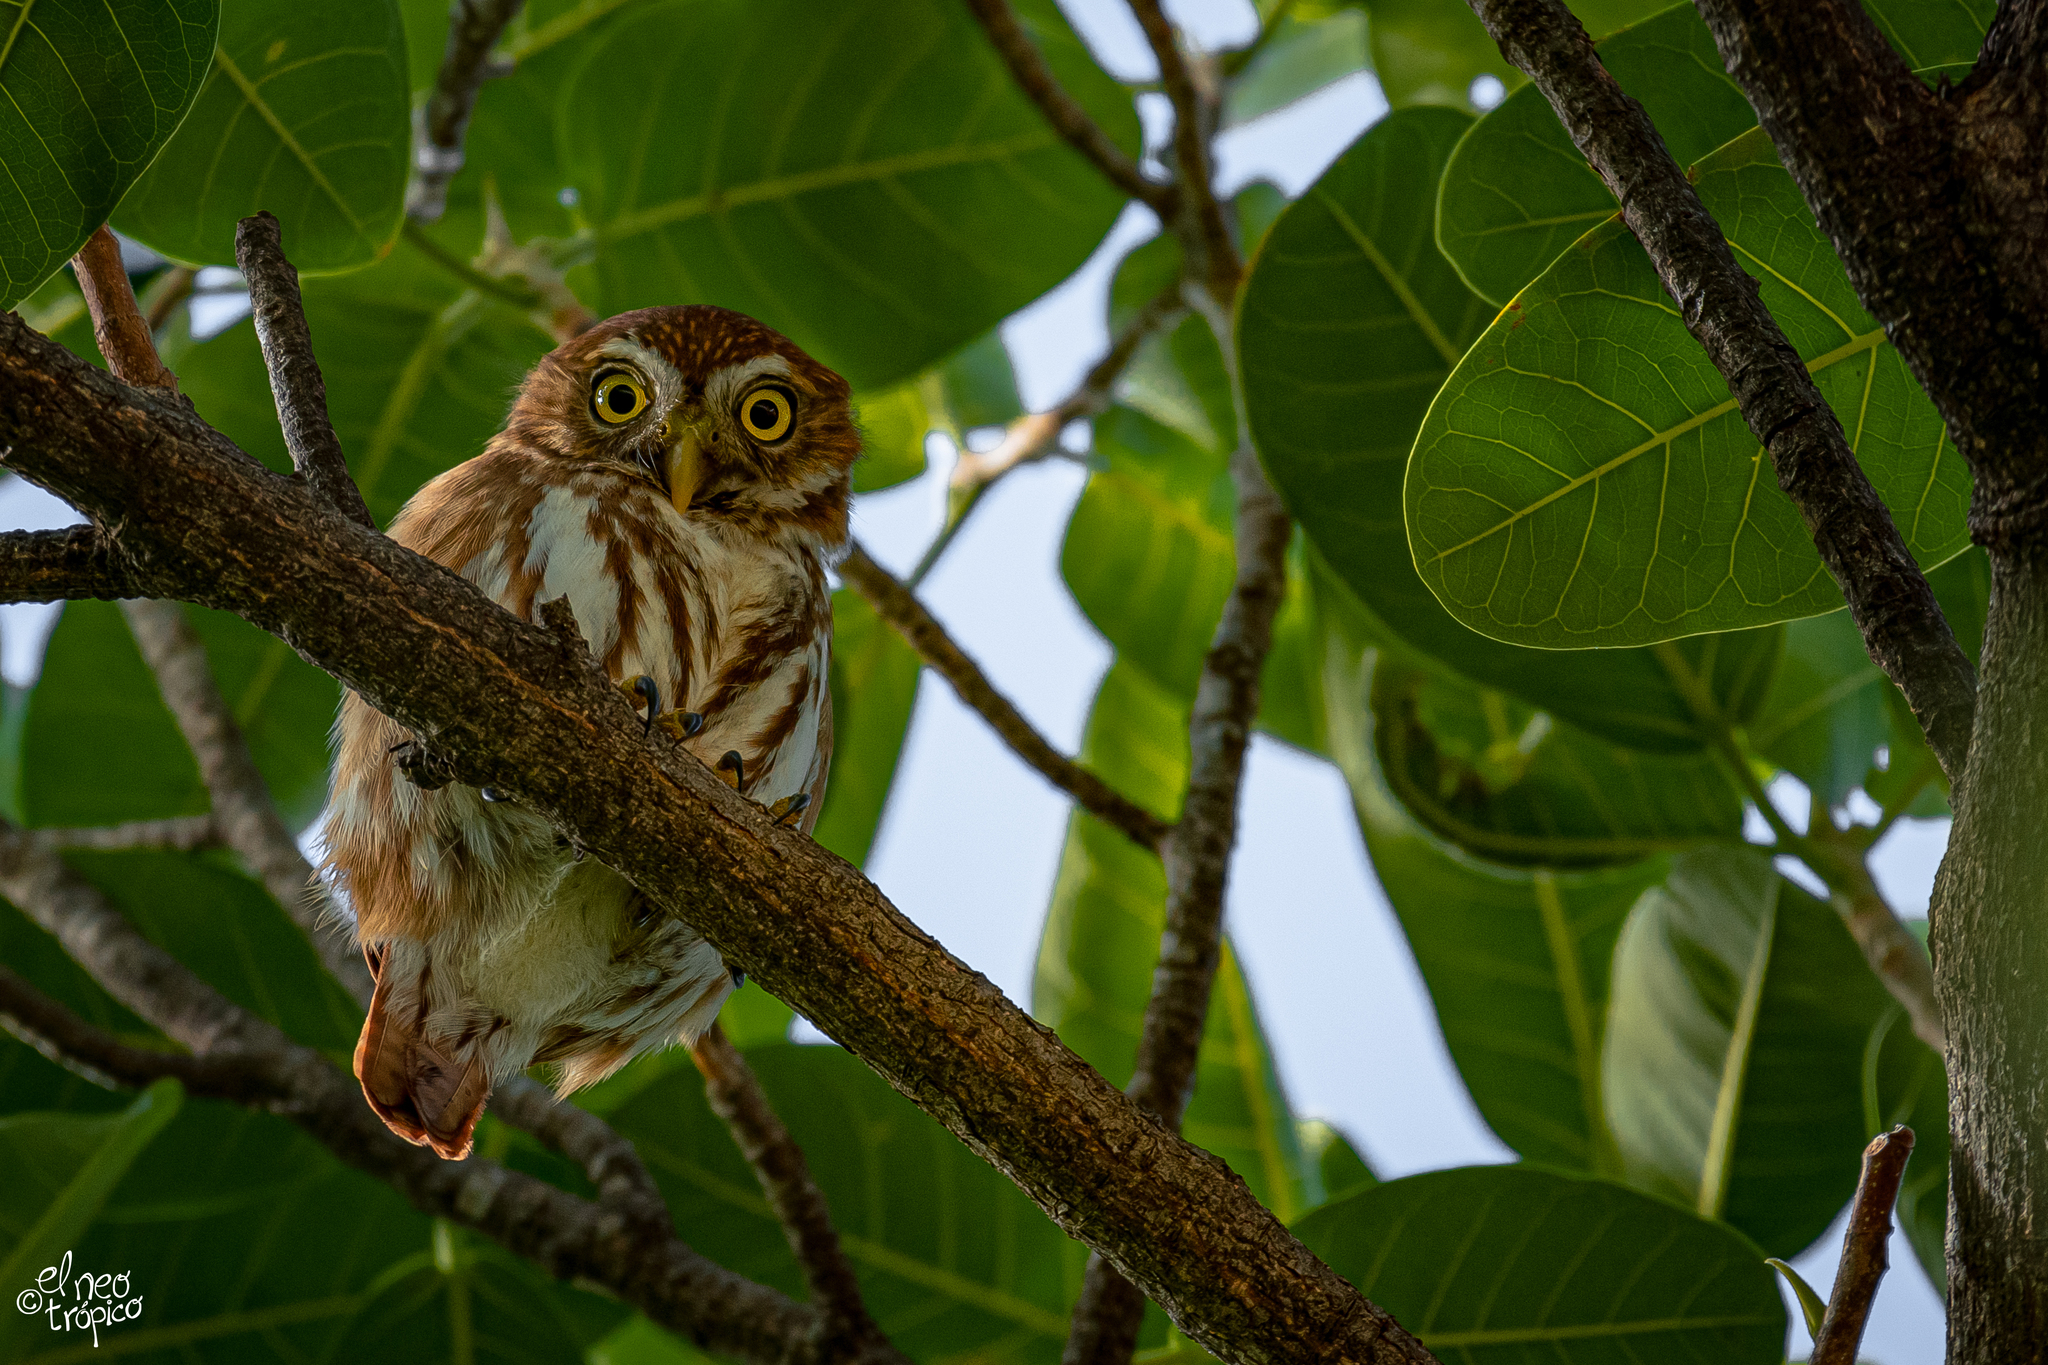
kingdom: Animalia
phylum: Chordata
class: Aves
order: Strigiformes
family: Strigidae
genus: Glaucidium
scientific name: Glaucidium brasilianum
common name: Ferruginous pygmy-owl
